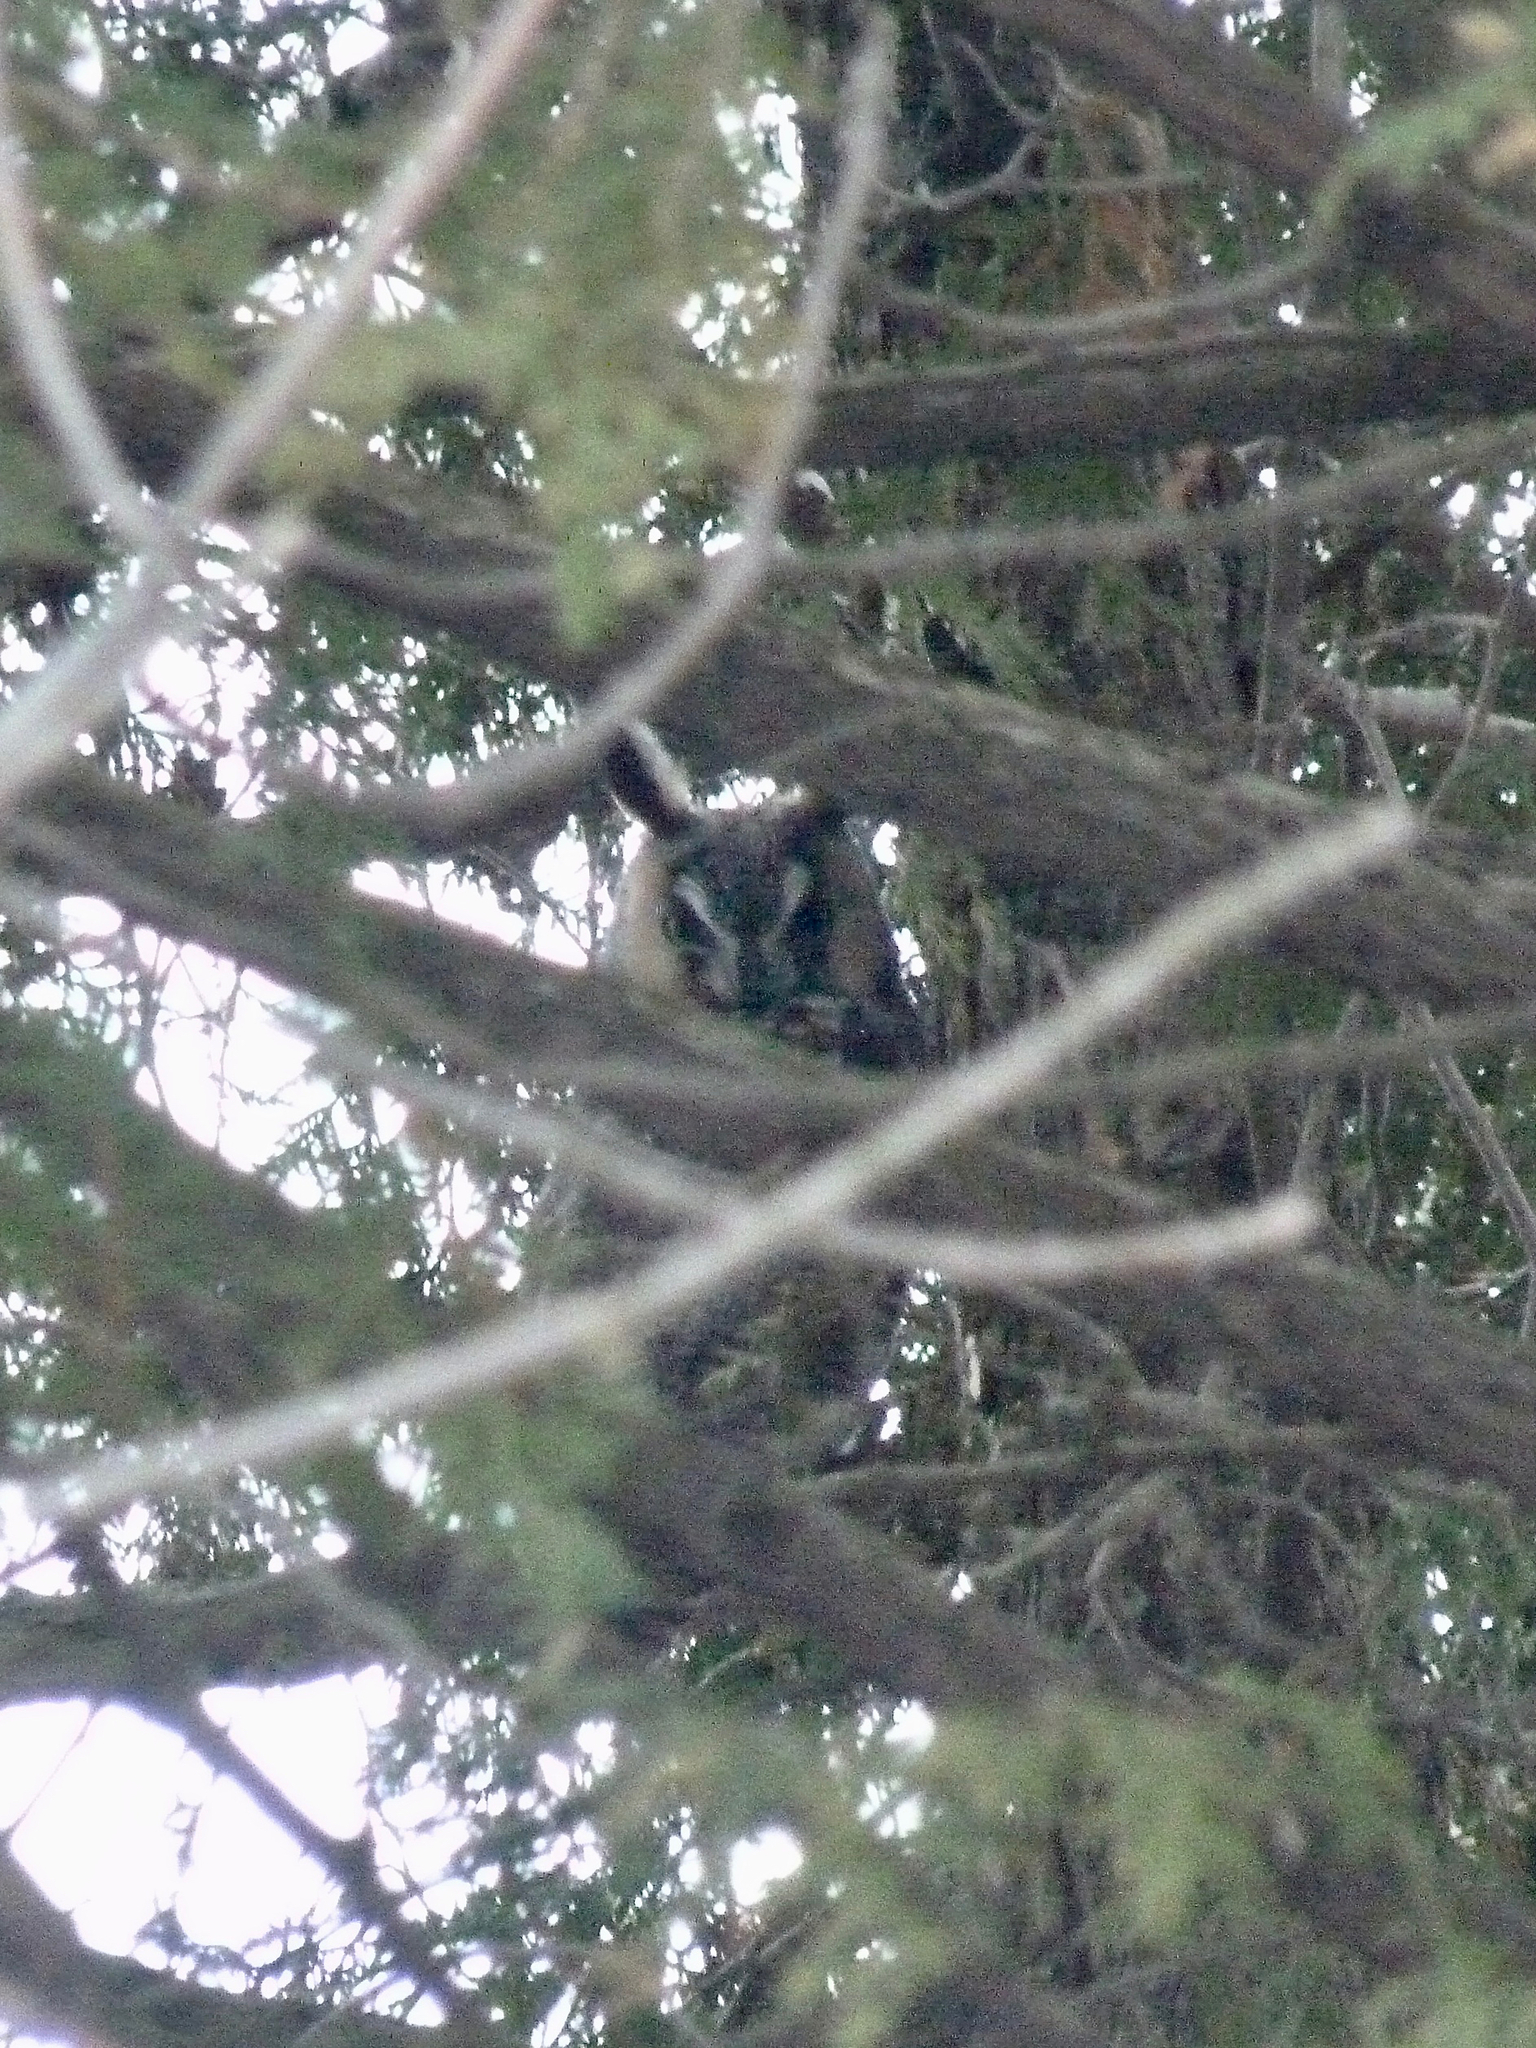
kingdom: Animalia
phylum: Chordata
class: Aves
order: Strigiformes
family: Strigidae
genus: Asio
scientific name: Asio otus
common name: Long-eared owl
